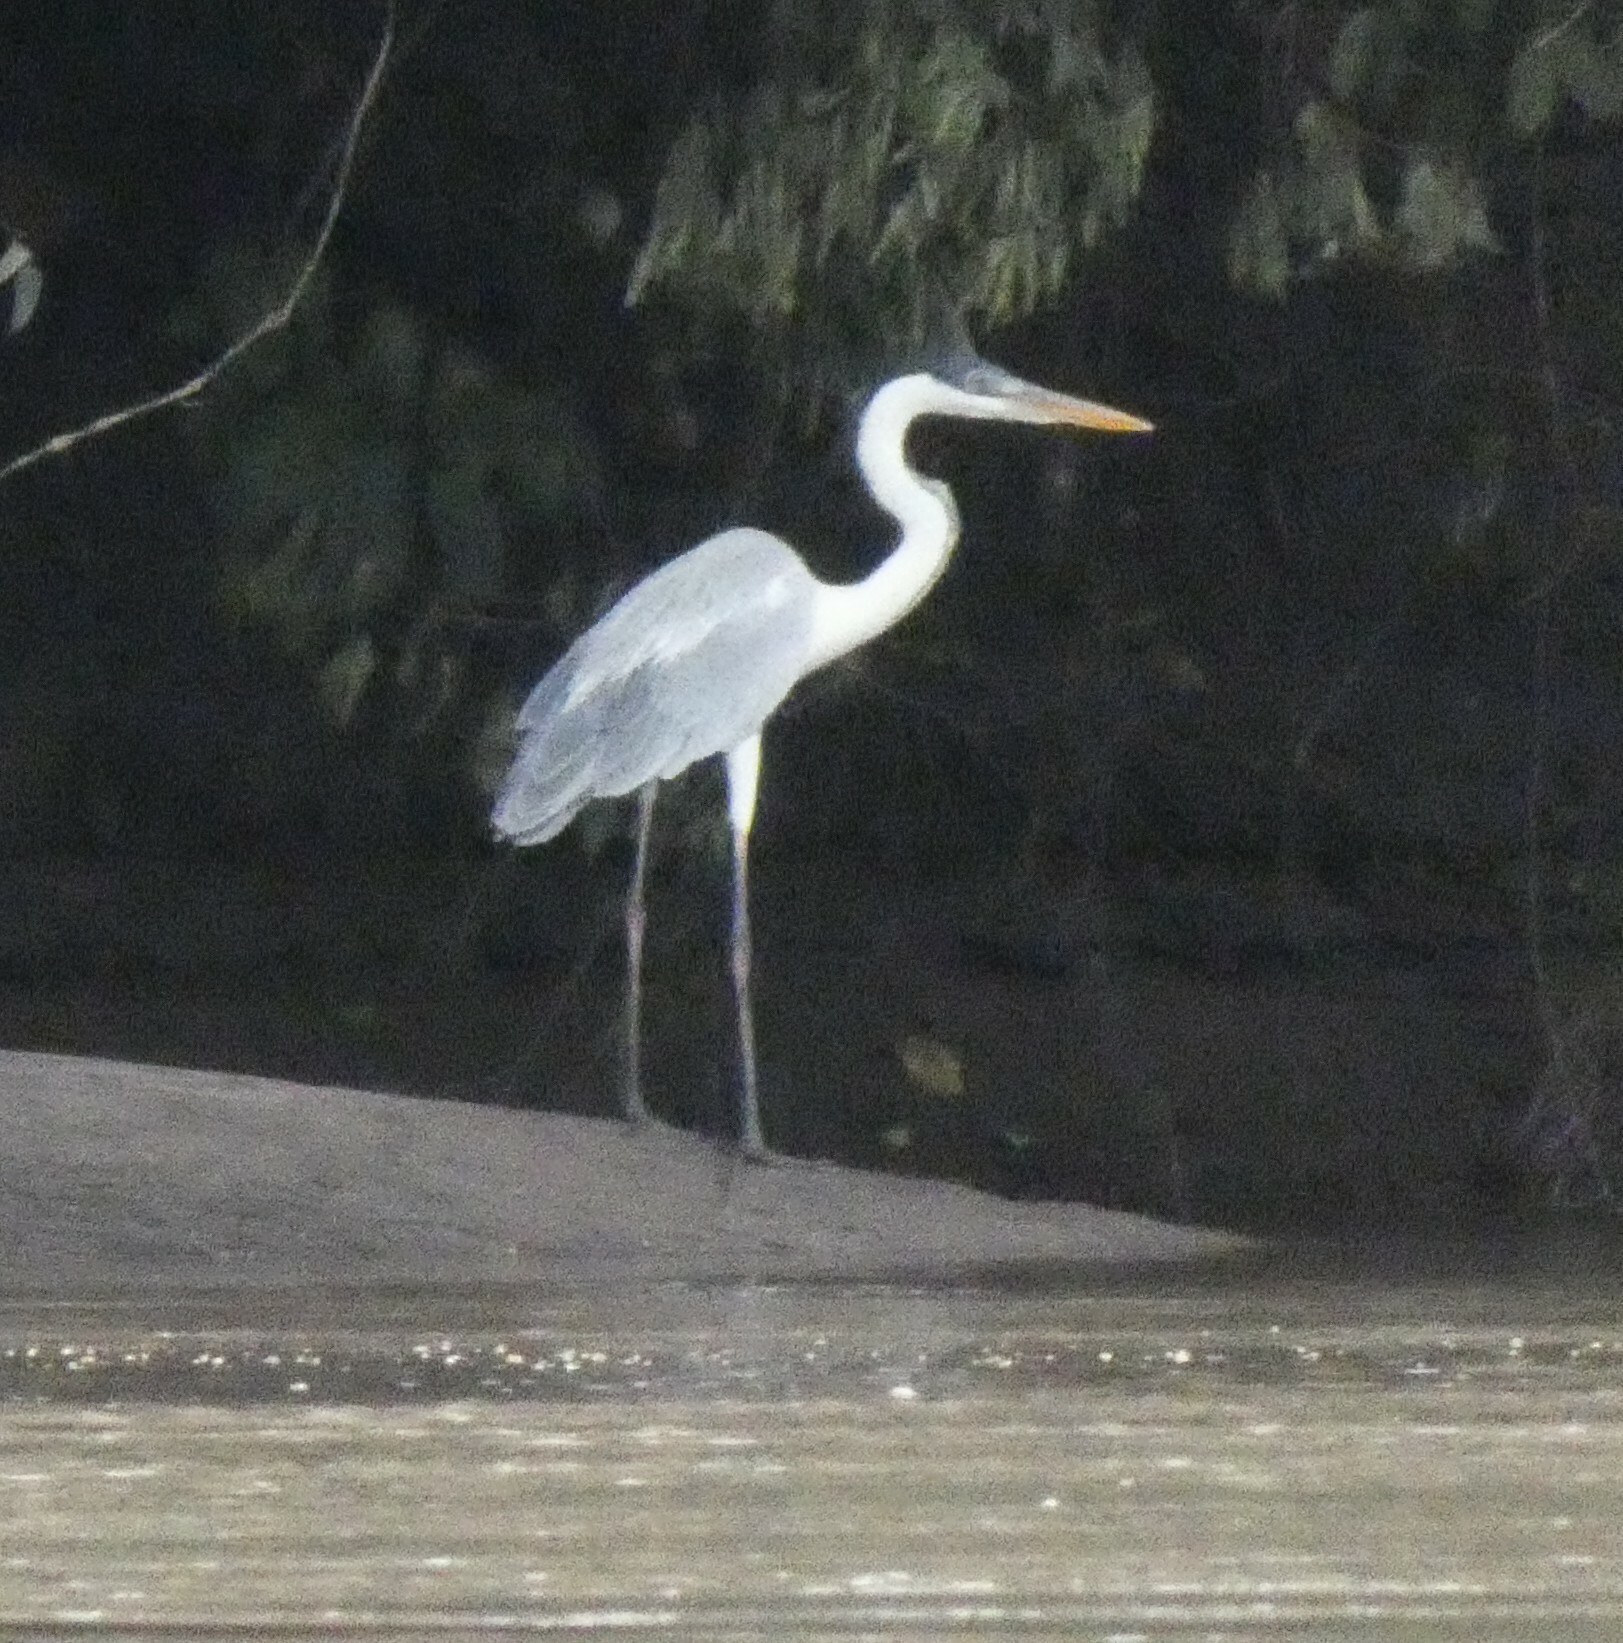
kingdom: Animalia
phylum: Chordata
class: Aves
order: Pelecaniformes
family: Ardeidae
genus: Ardea
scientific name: Ardea cocoi
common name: Cocoi heron
